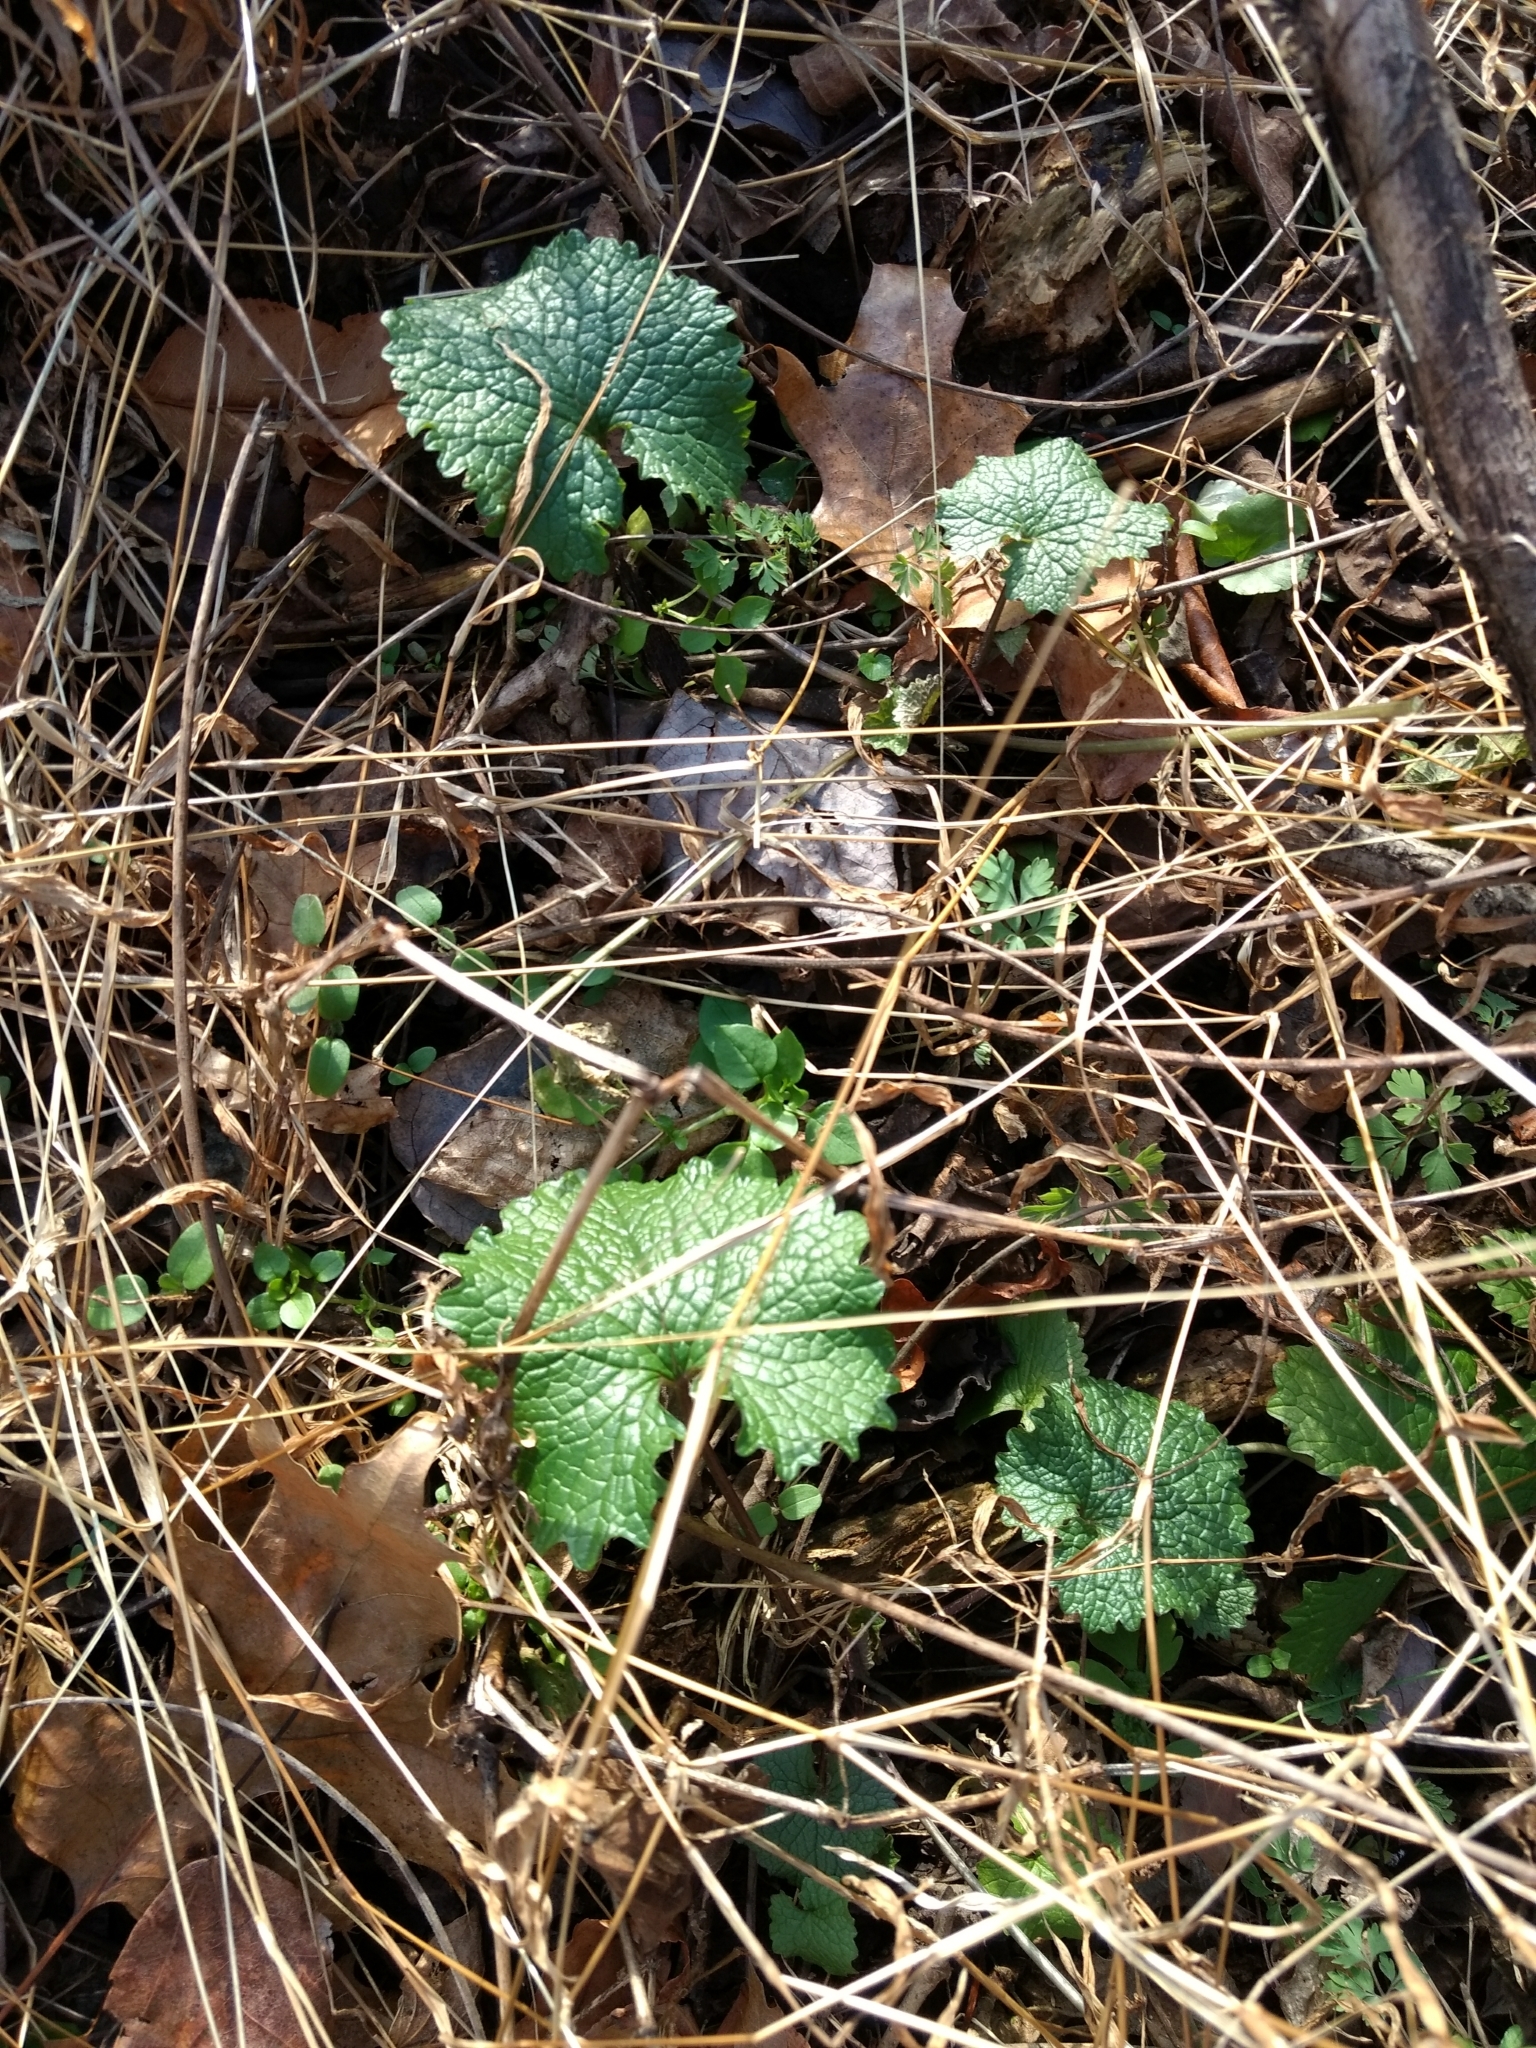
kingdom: Plantae
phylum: Tracheophyta
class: Magnoliopsida
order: Brassicales
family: Brassicaceae
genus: Alliaria
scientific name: Alliaria petiolata
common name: Garlic mustard
